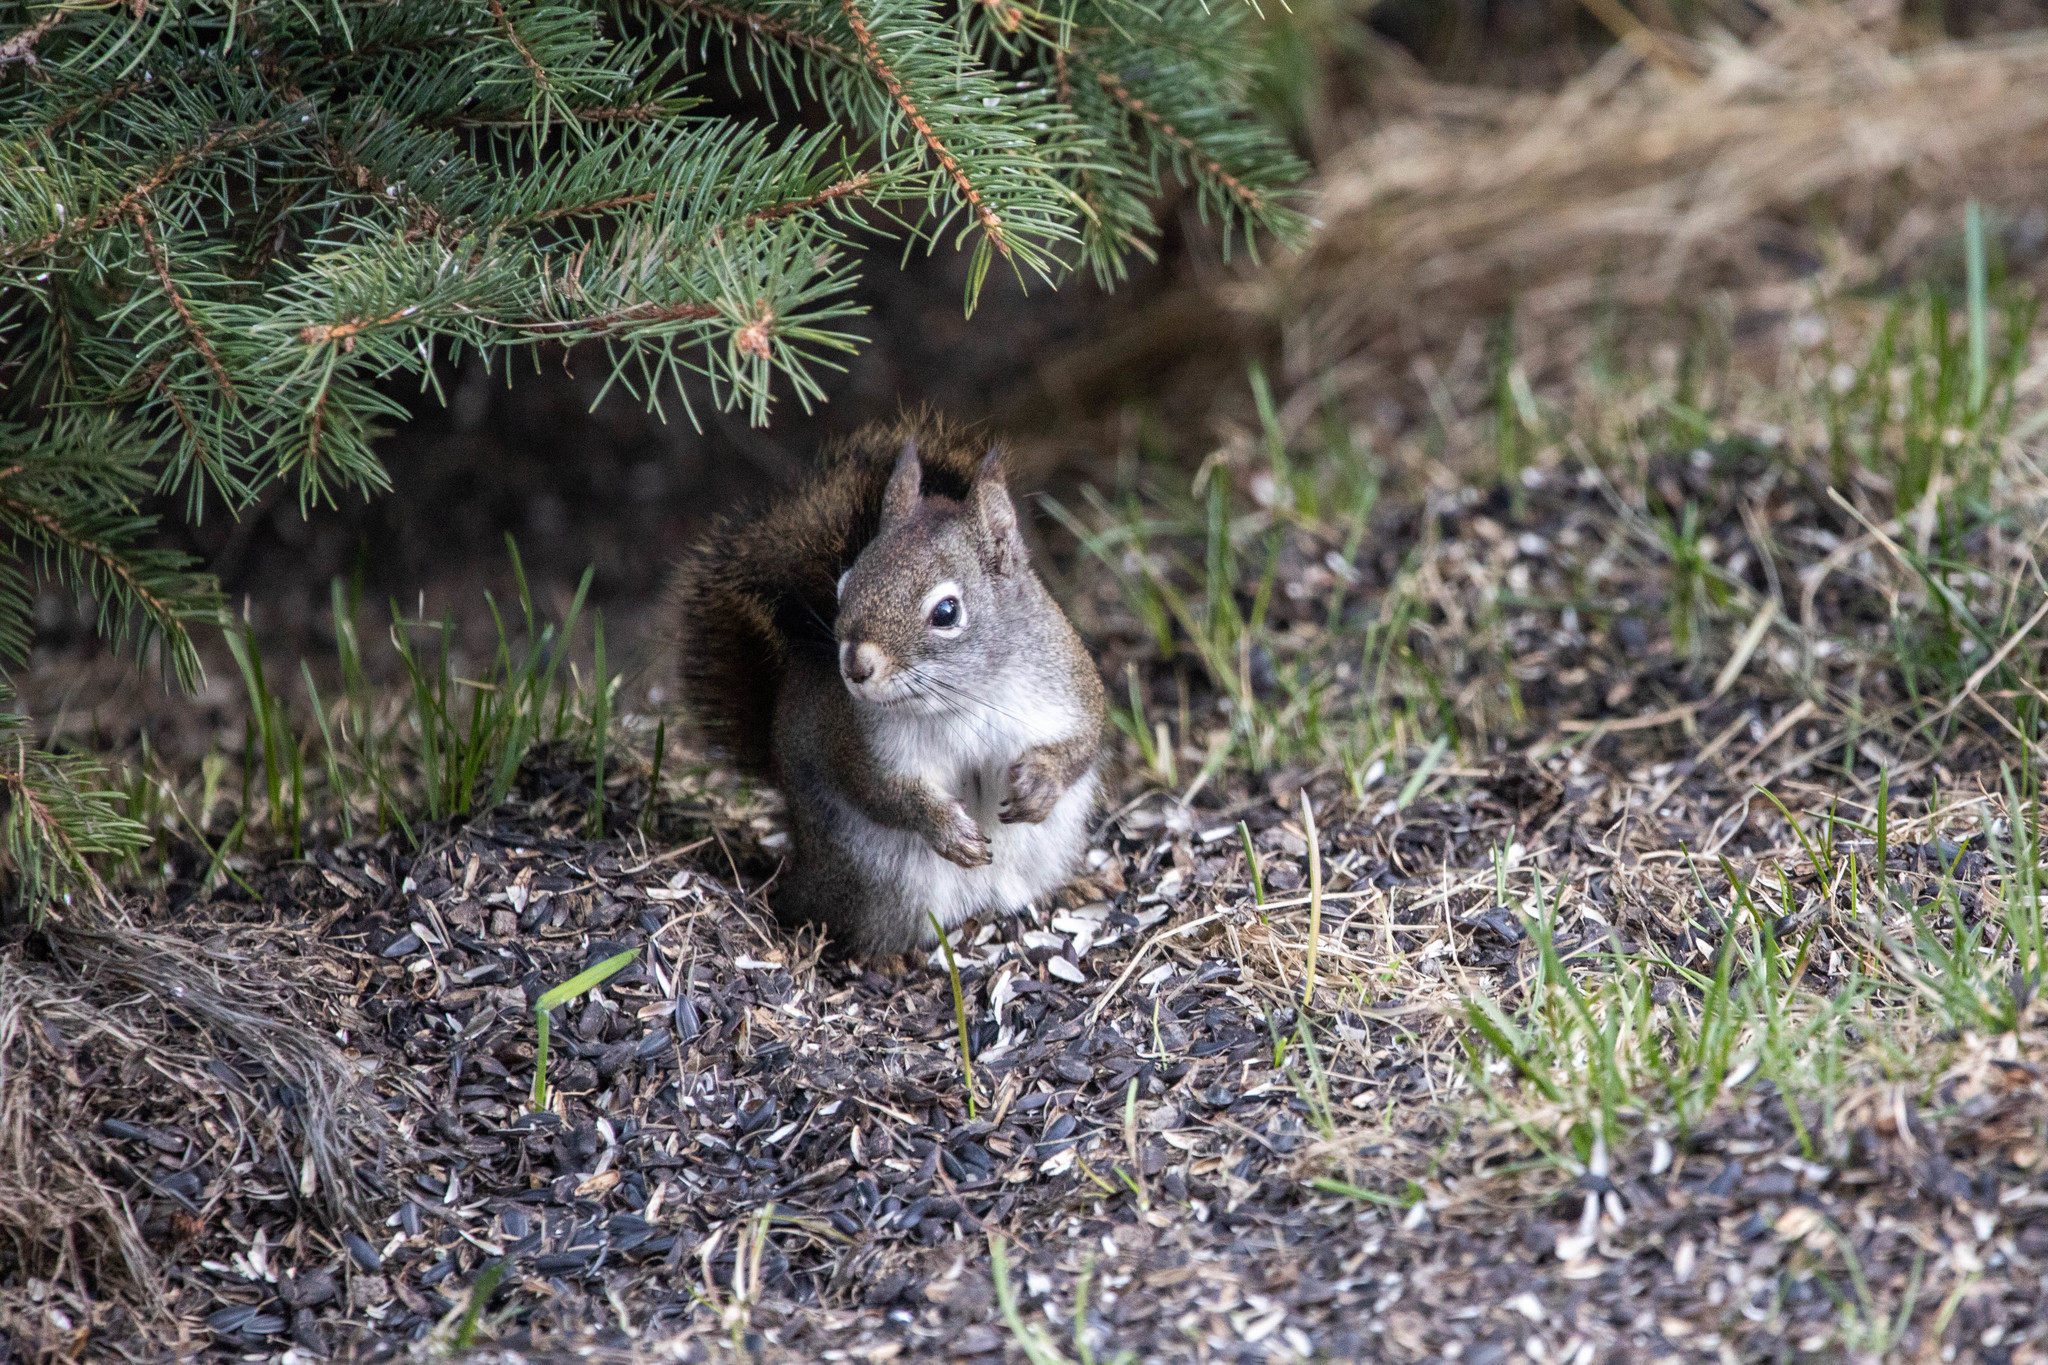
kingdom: Animalia
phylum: Chordata
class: Mammalia
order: Rodentia
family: Sciuridae
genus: Tamiasciurus
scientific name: Tamiasciurus hudsonicus
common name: Red squirrel
